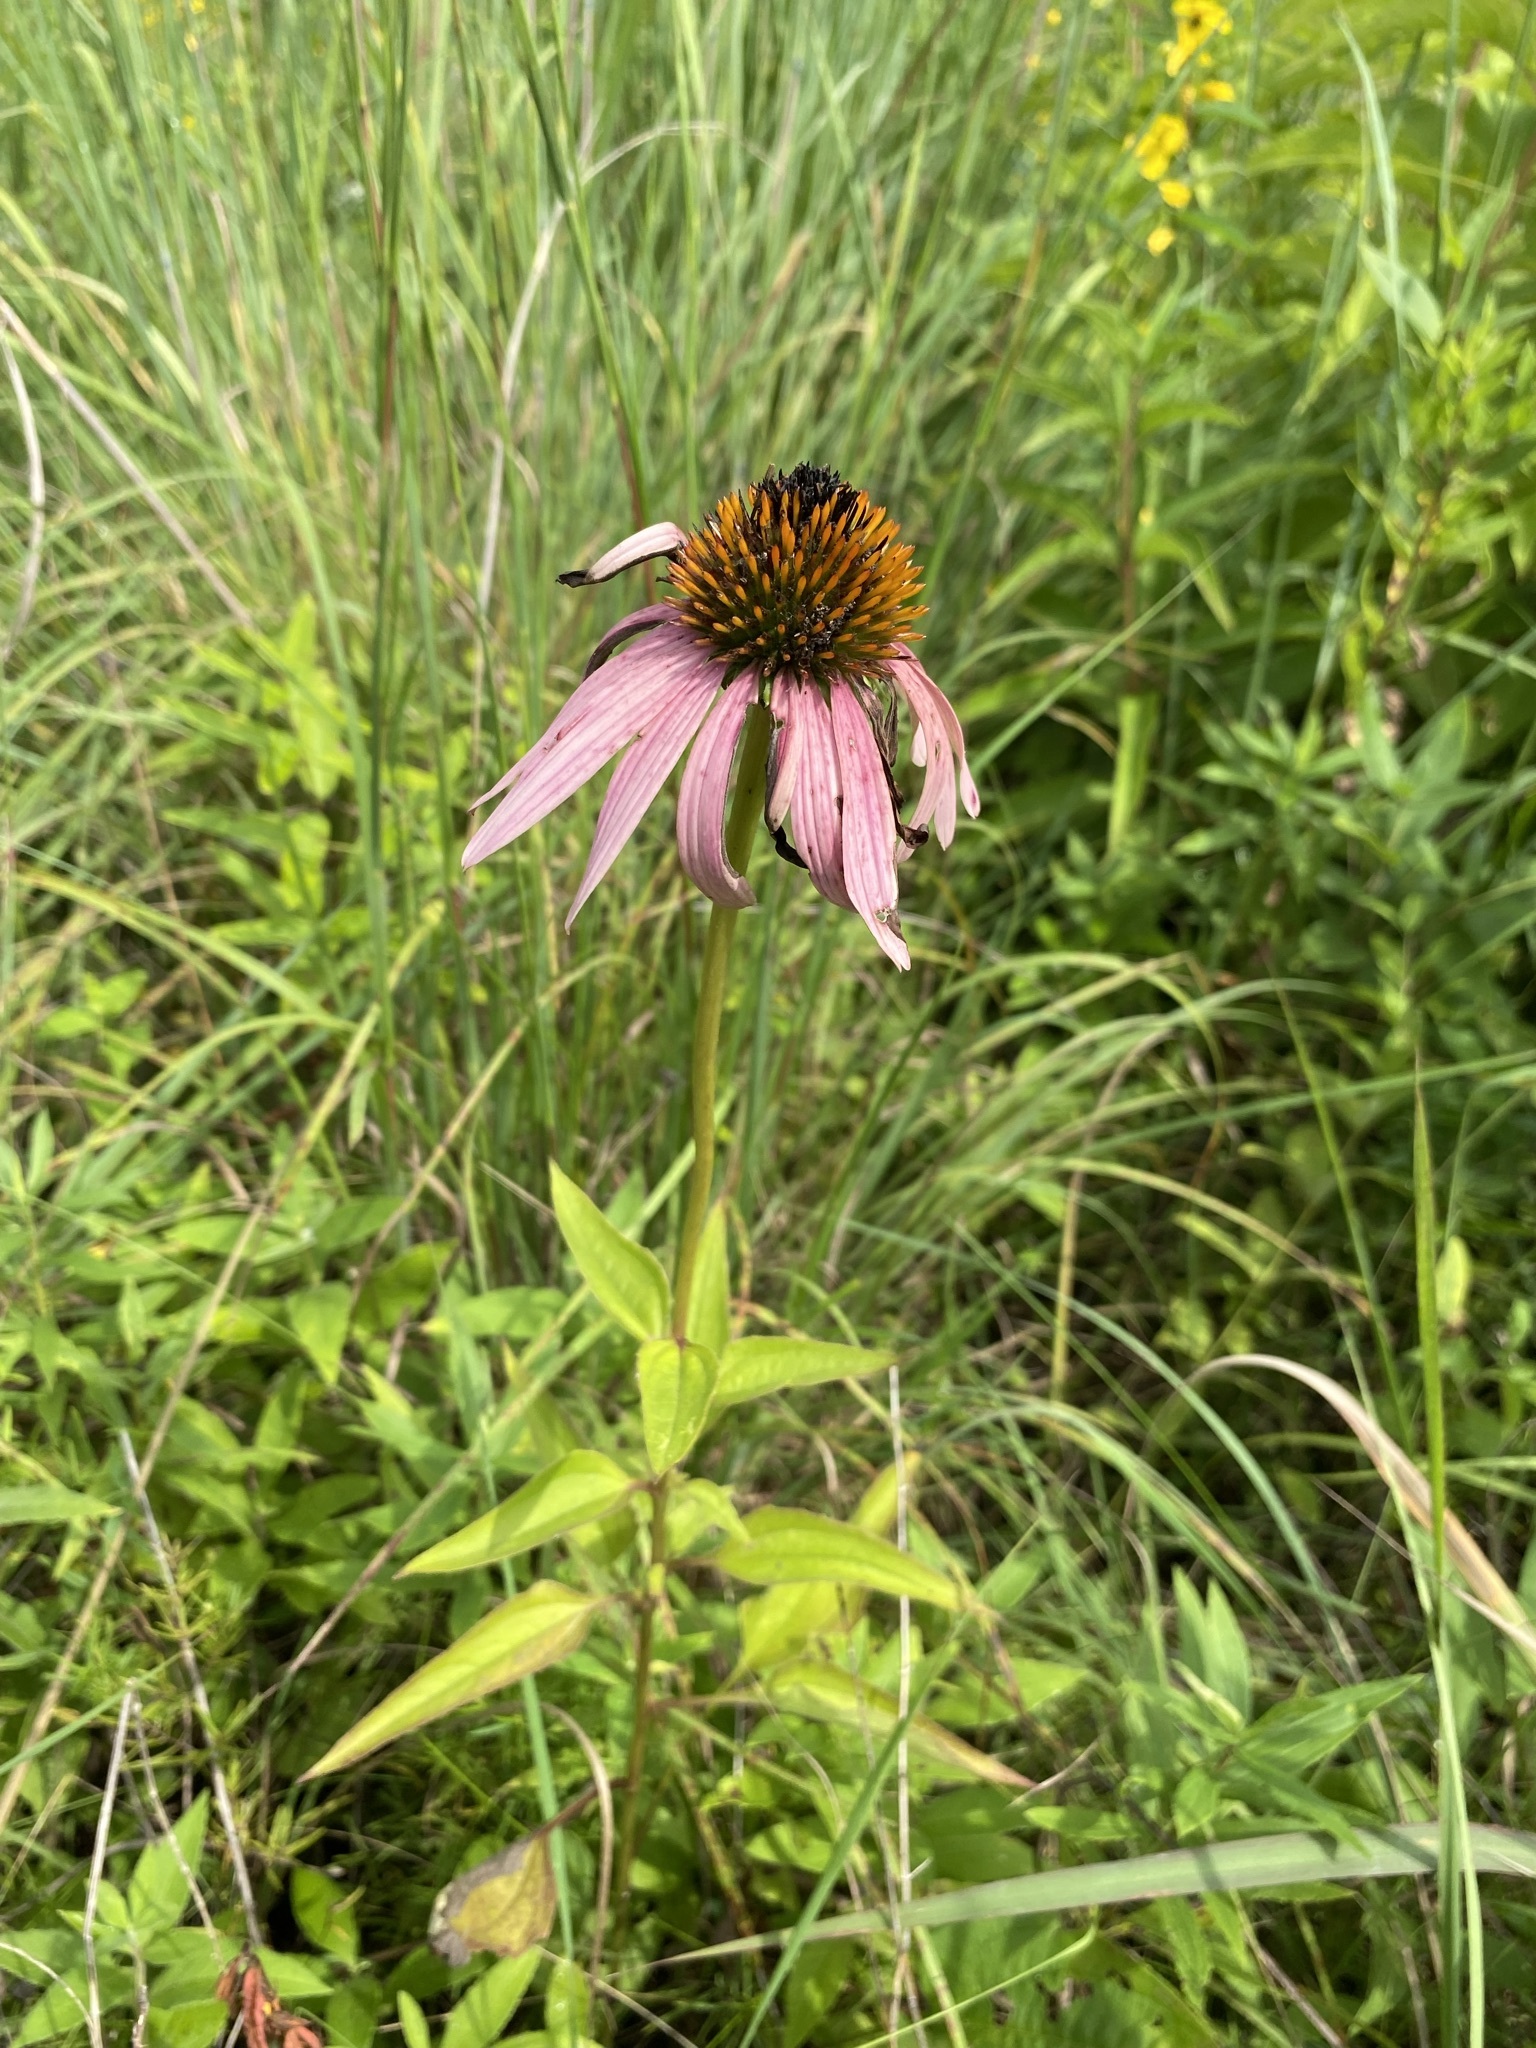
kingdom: Plantae
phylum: Tracheophyta
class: Magnoliopsida
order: Asterales
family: Asteraceae
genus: Echinacea
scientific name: Echinacea purpurea
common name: Broad-leaved purple coneflower
